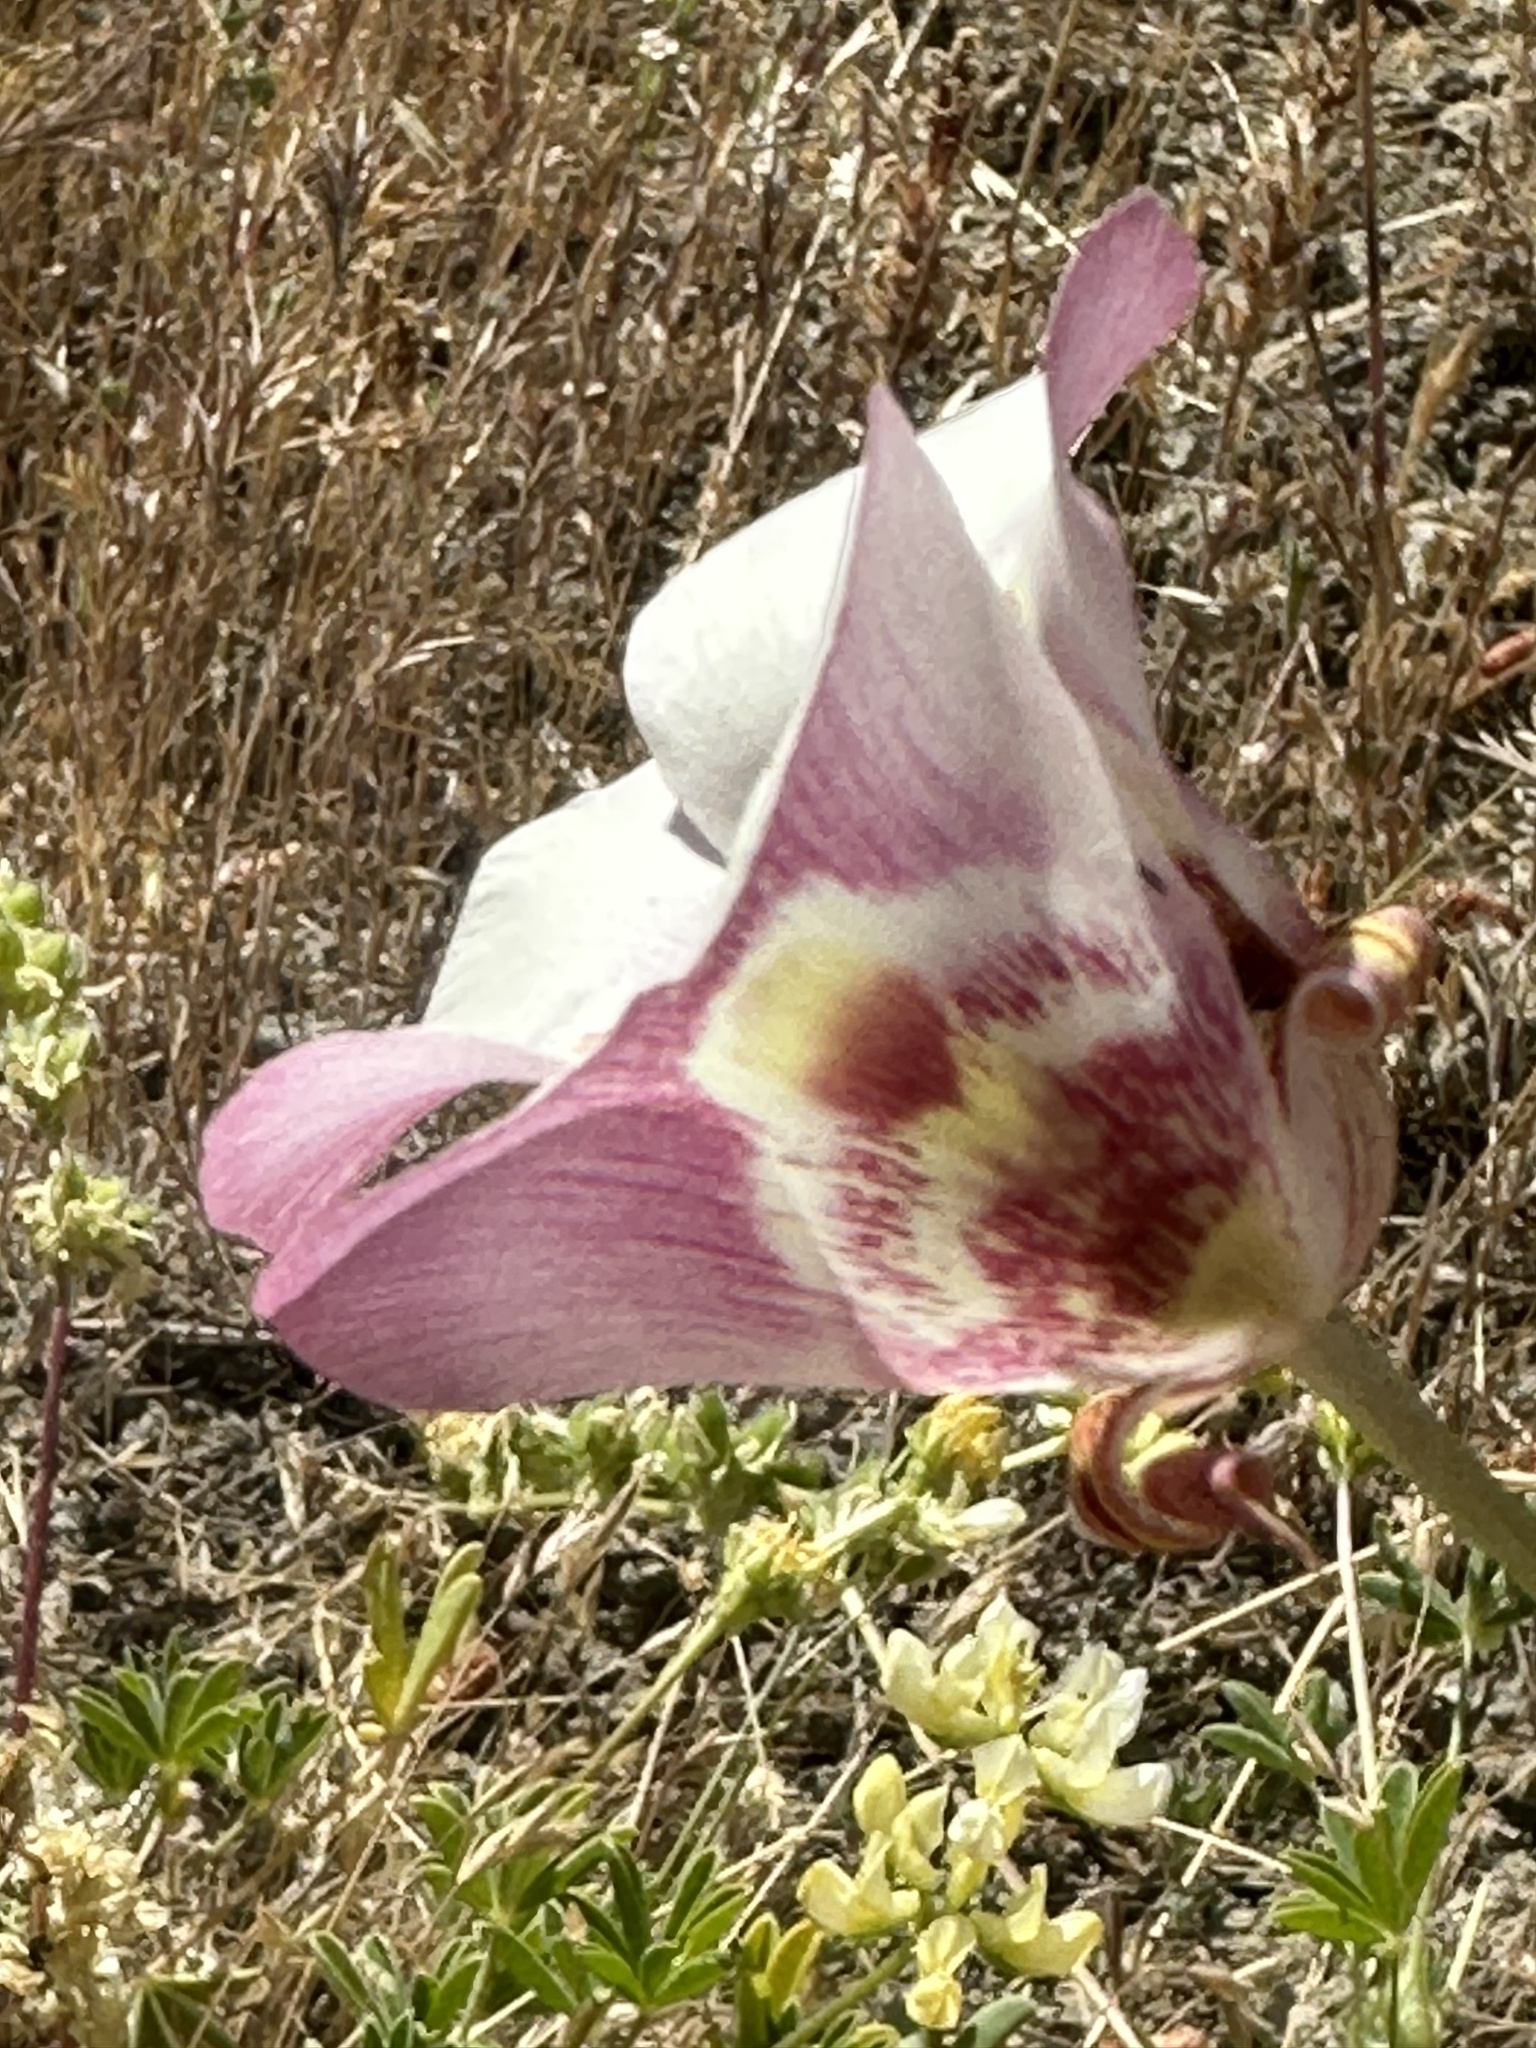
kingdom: Plantae
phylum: Tracheophyta
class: Liliopsida
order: Liliales
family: Liliaceae
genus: Calochortus
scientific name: Calochortus argillosus
